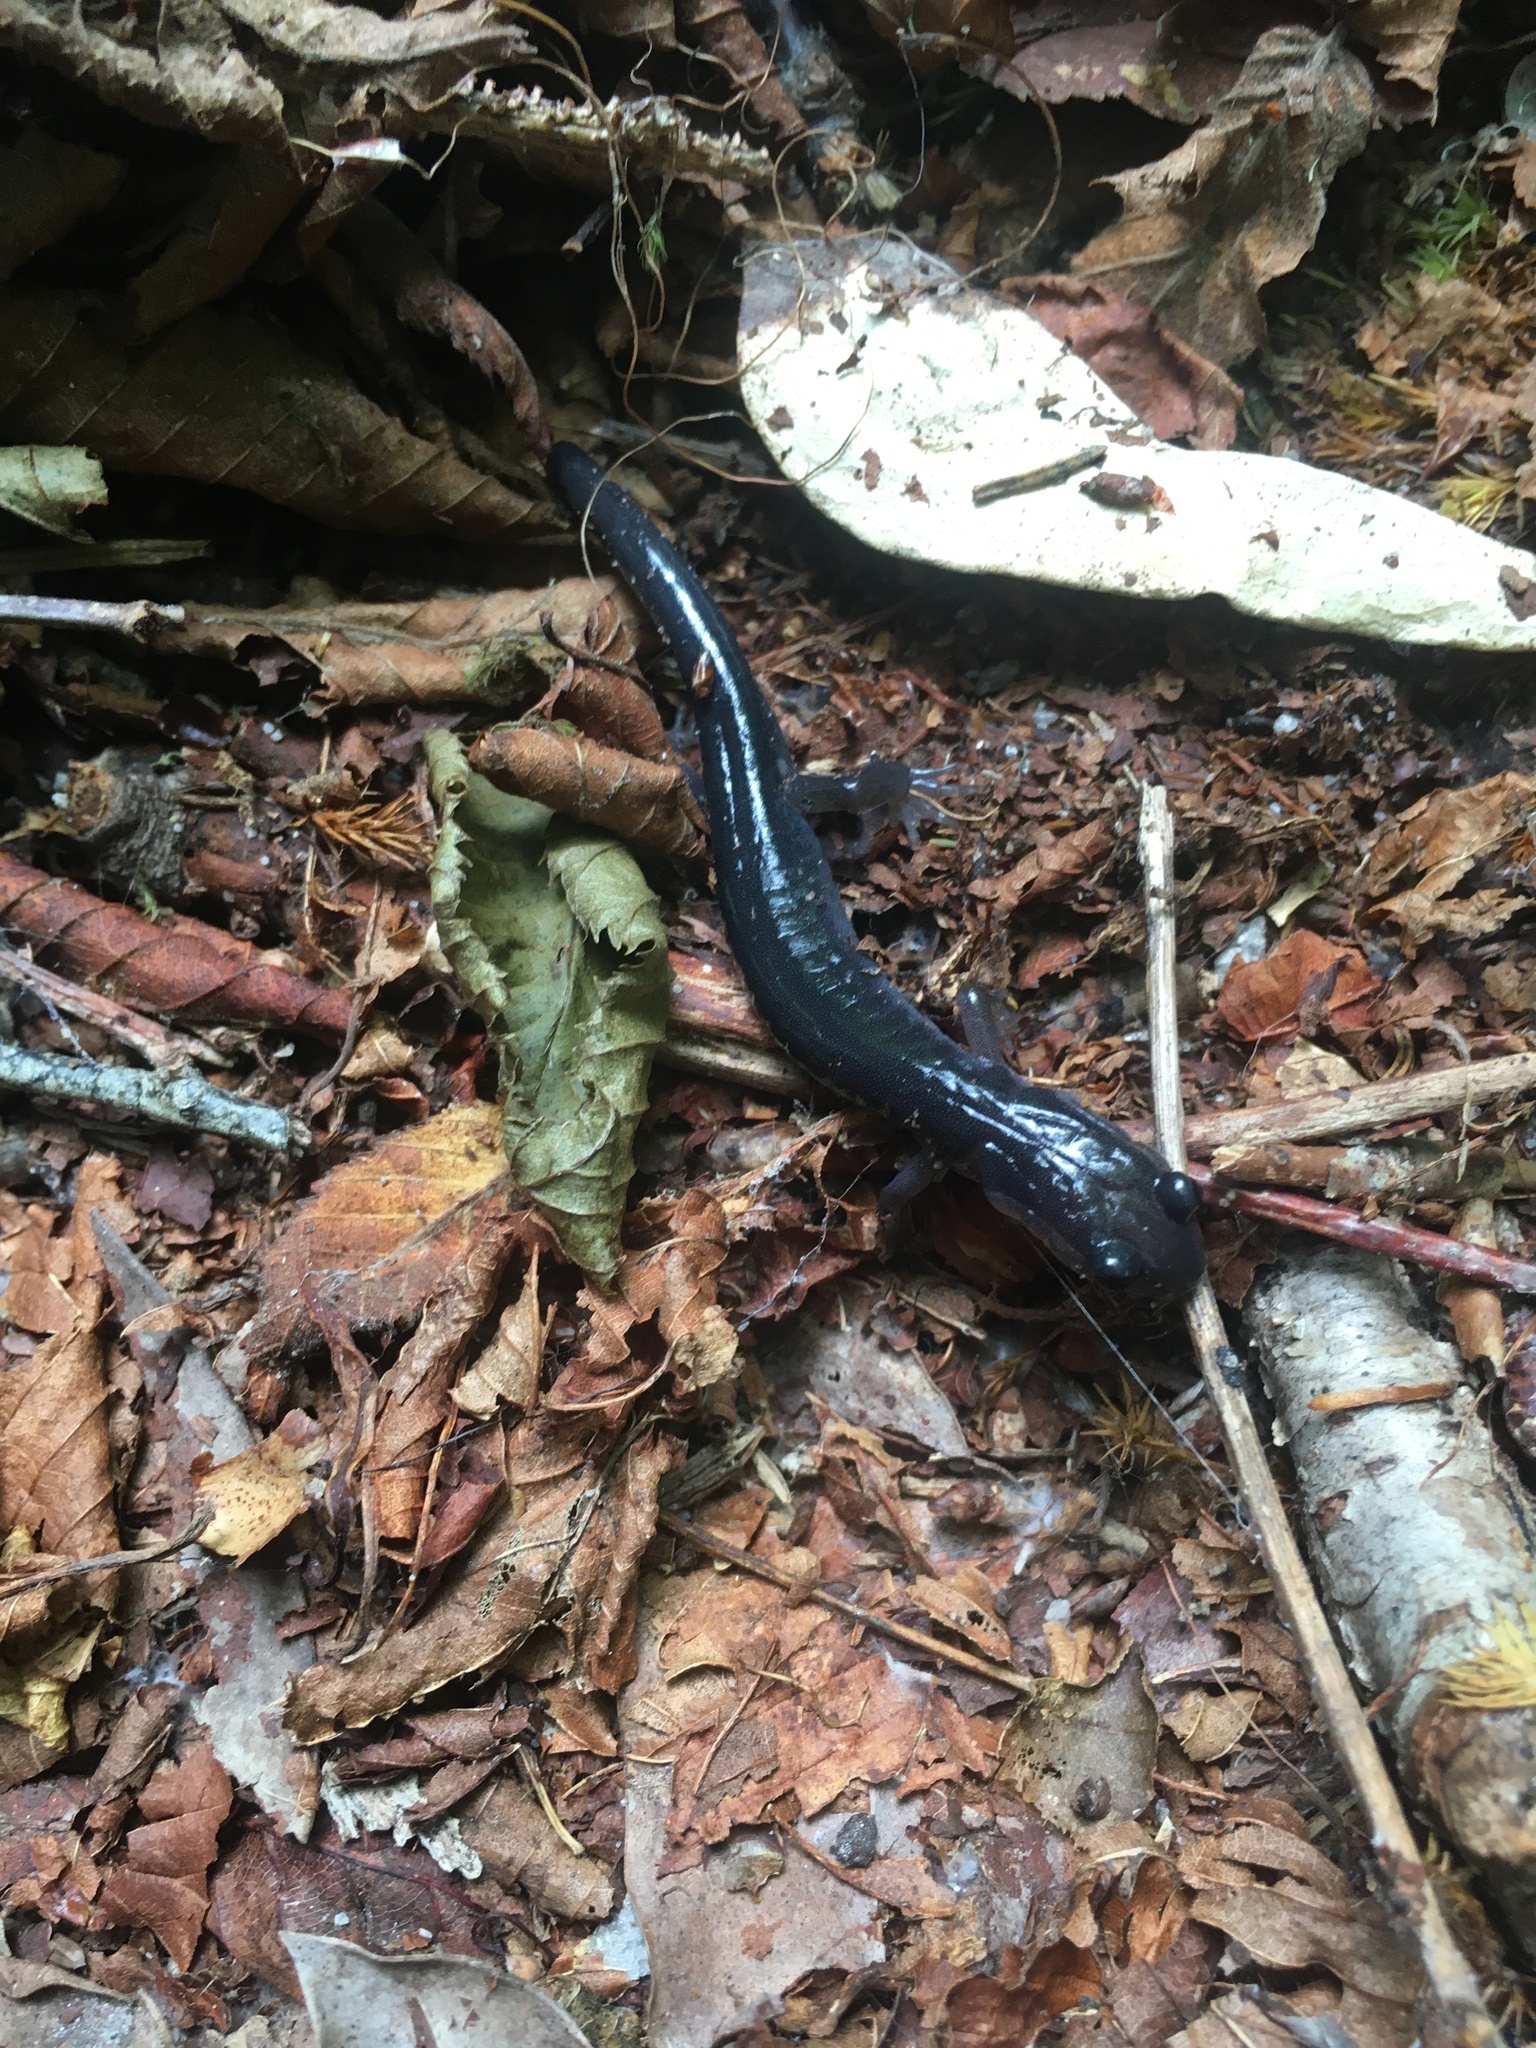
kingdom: Animalia
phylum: Chordata
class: Amphibia
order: Caudata
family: Plethodontidae
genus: Plethodon
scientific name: Plethodon montanus
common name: Northern gray-cheeked salamander
